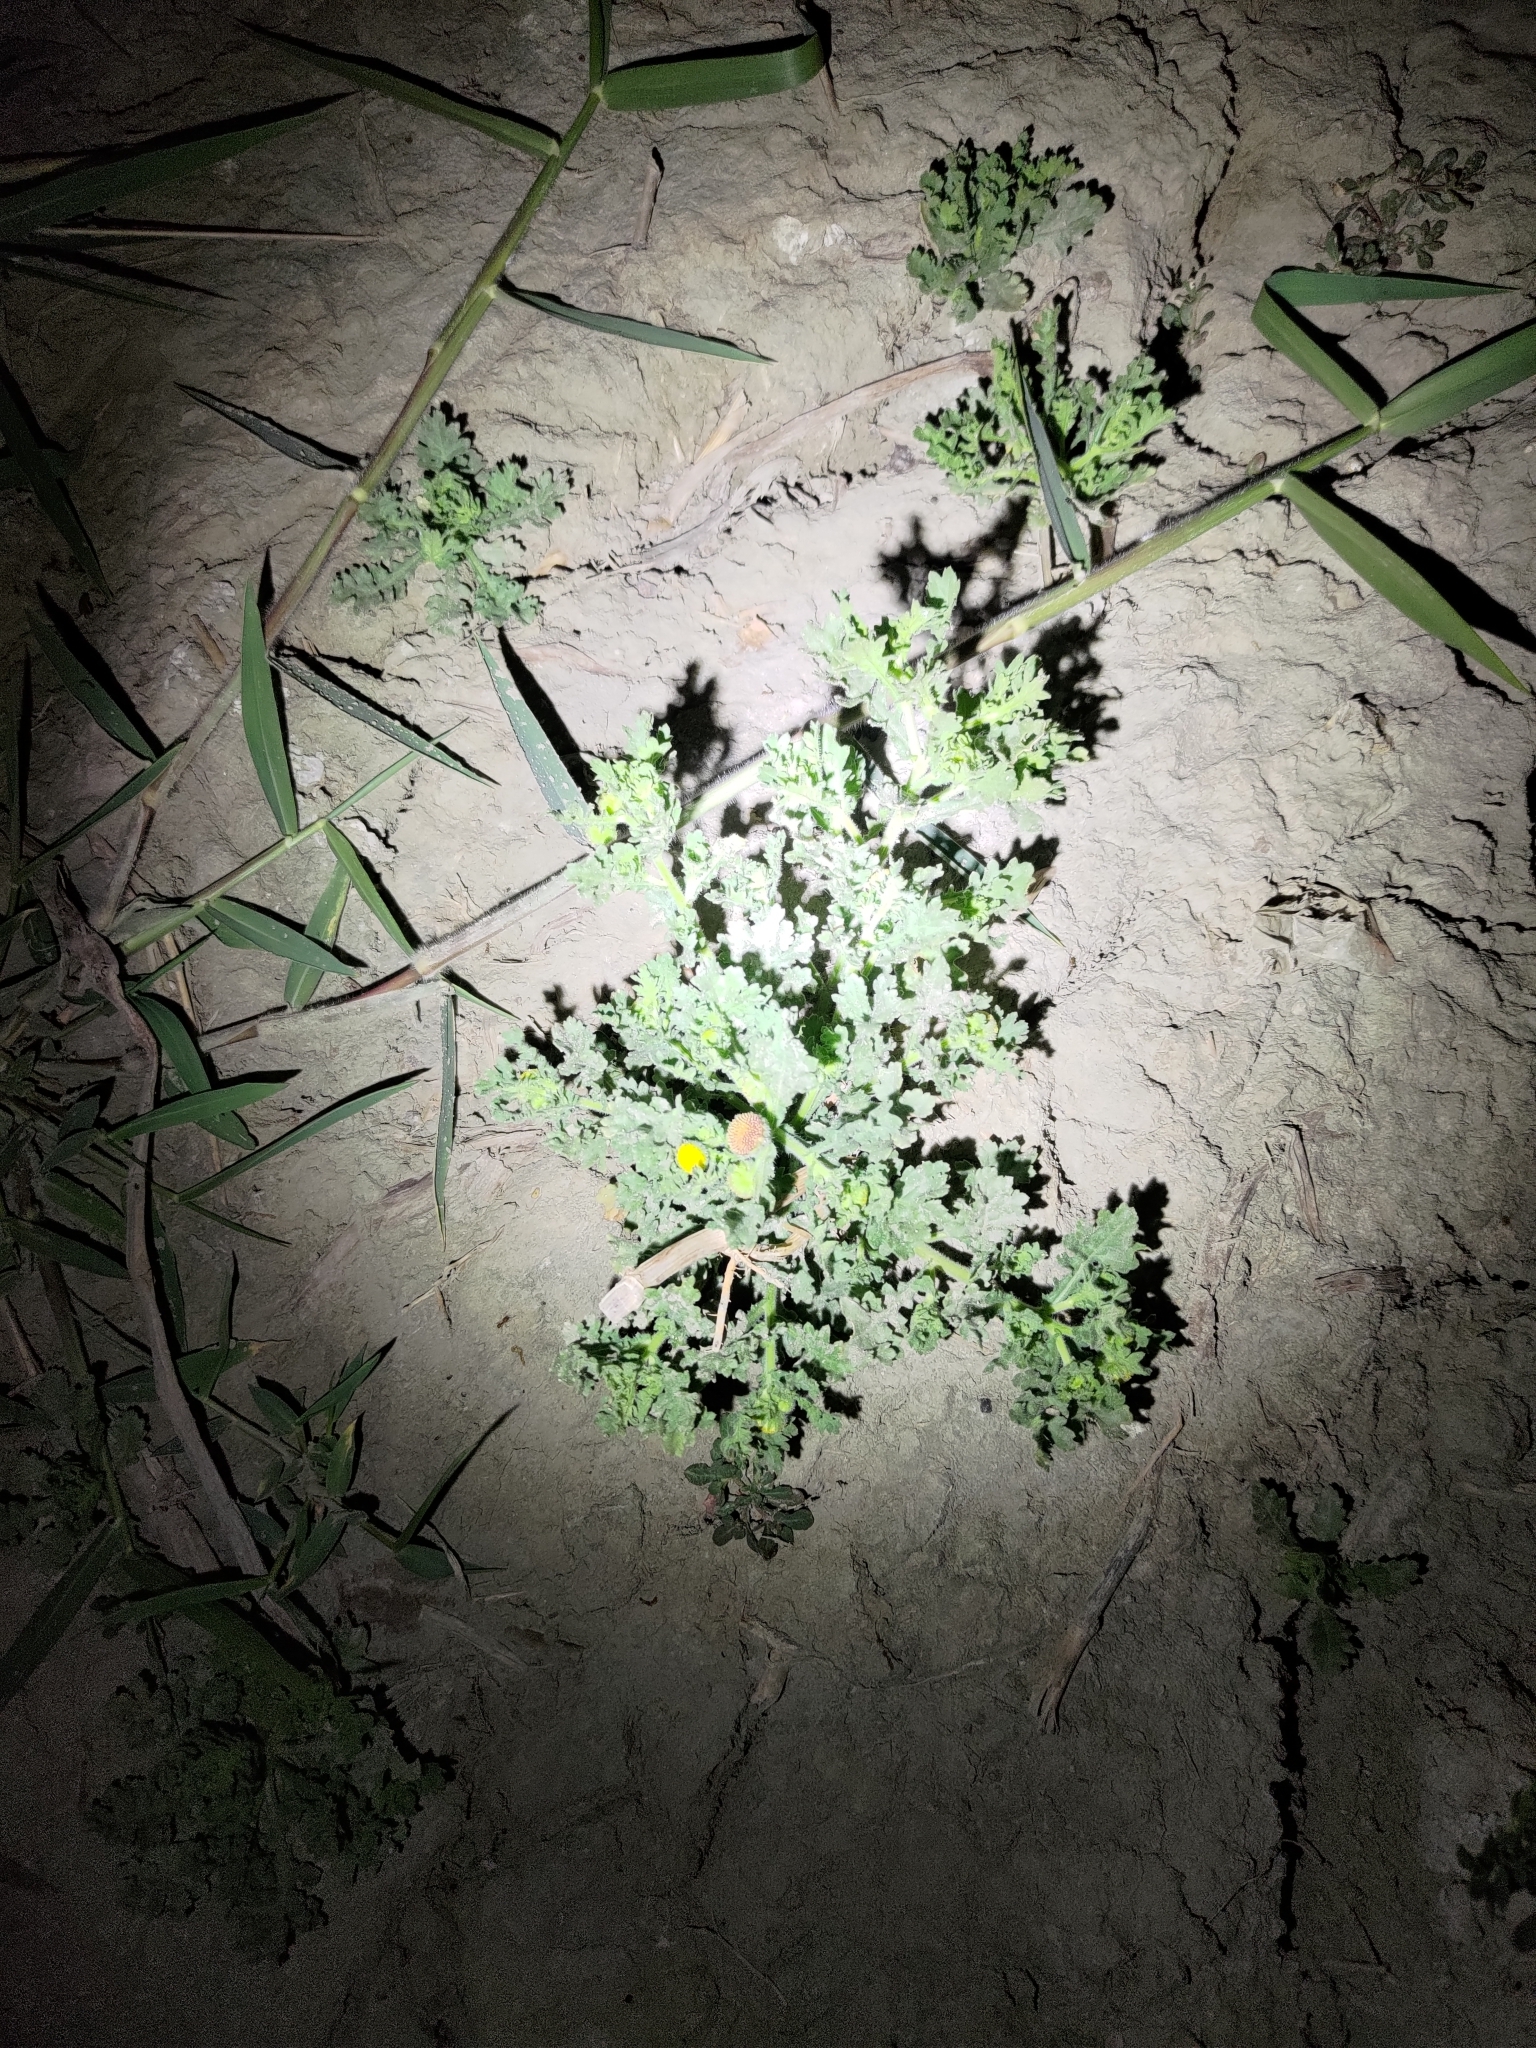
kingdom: Plantae
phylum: Tracheophyta
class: Magnoliopsida
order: Asterales
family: Asteraceae
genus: Grangea
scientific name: Grangea maderaspatana
